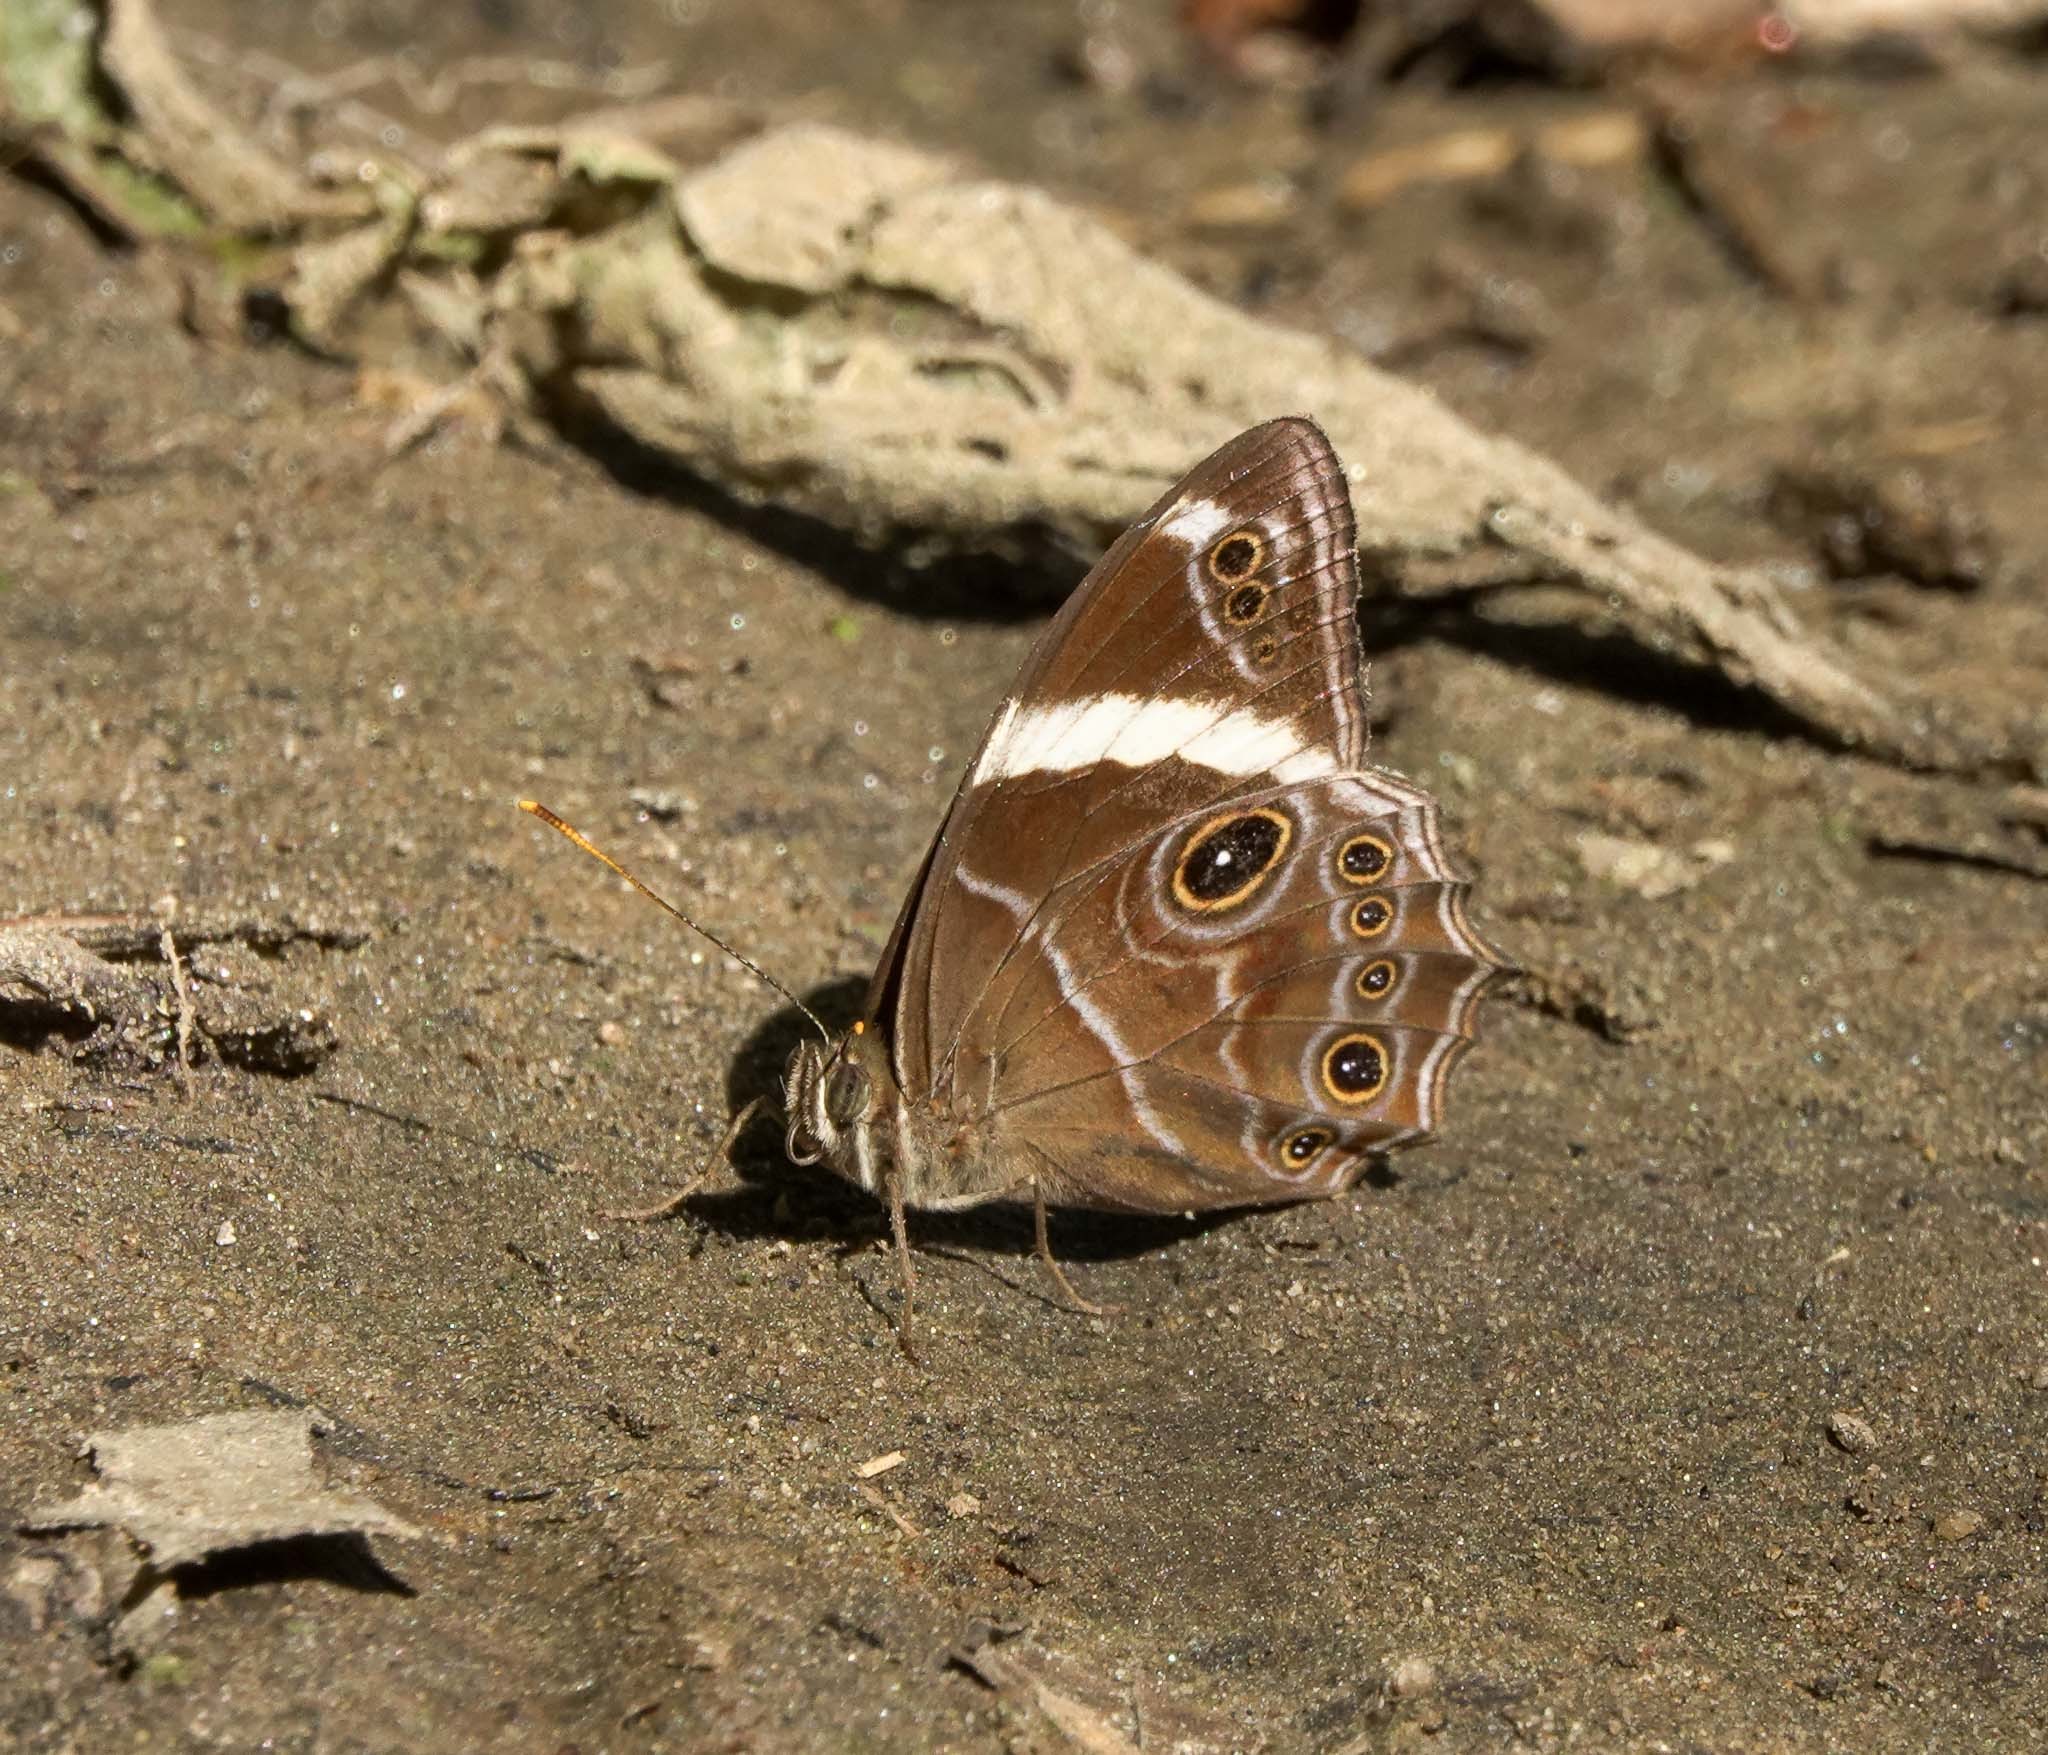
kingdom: Animalia
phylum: Arthropoda
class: Insecta
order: Lepidoptera
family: Nymphalidae
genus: Lethe
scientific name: Lethe confusa
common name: Banded treebrown
